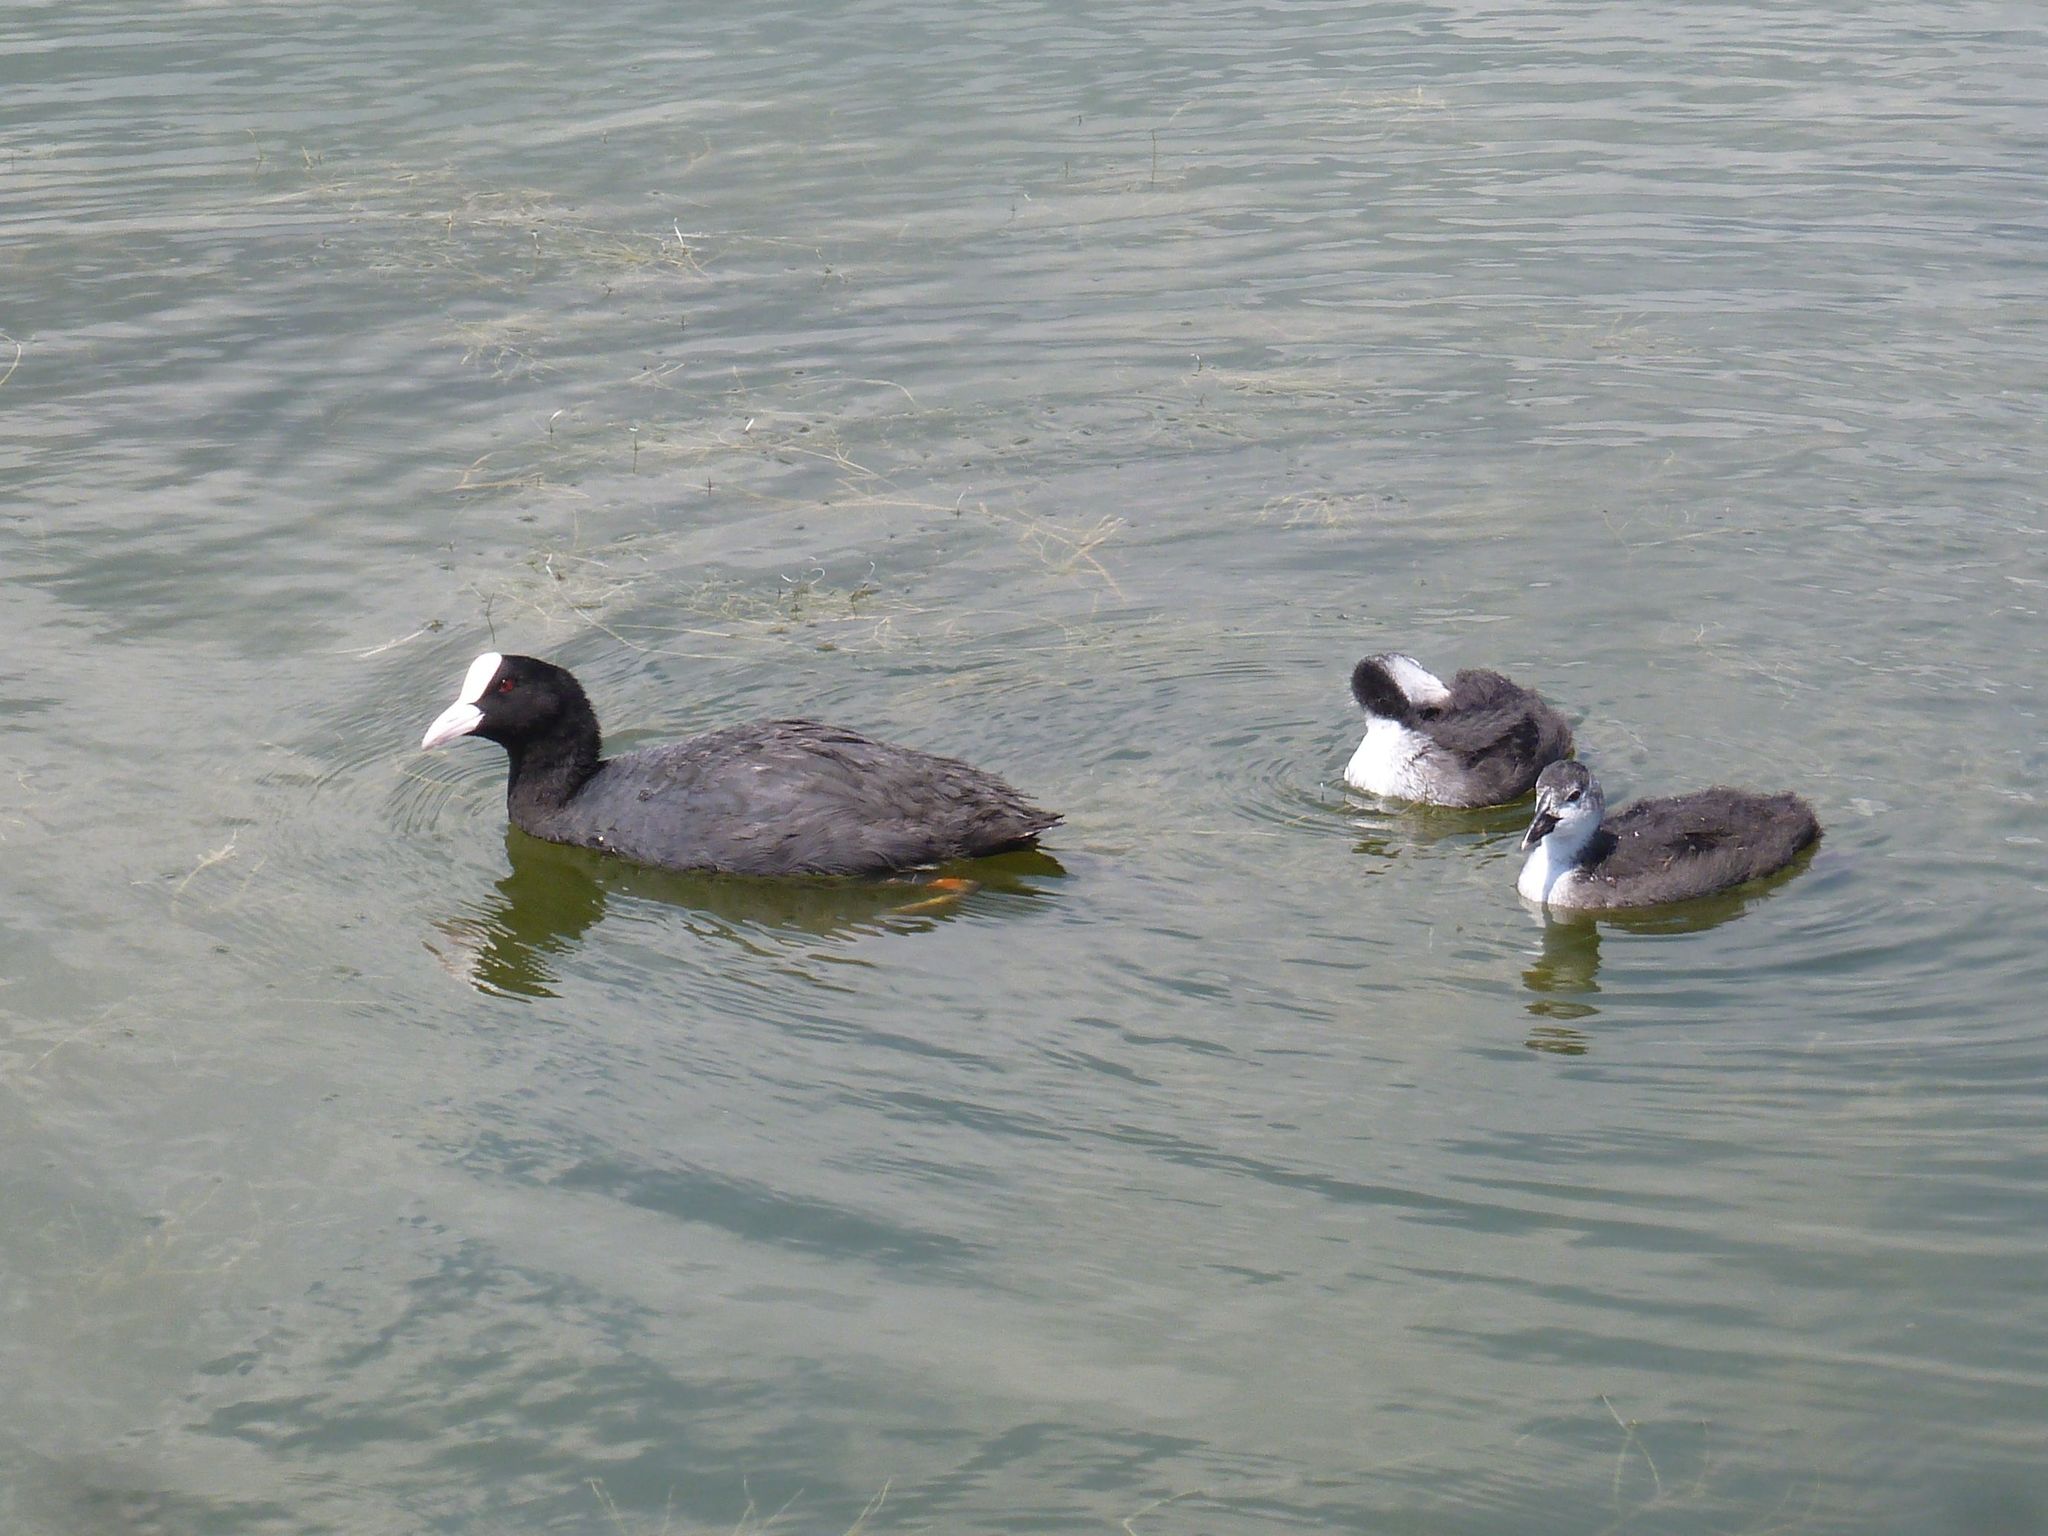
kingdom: Animalia
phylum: Chordata
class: Aves
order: Gruiformes
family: Rallidae
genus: Fulica
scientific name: Fulica atra
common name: Eurasian coot
